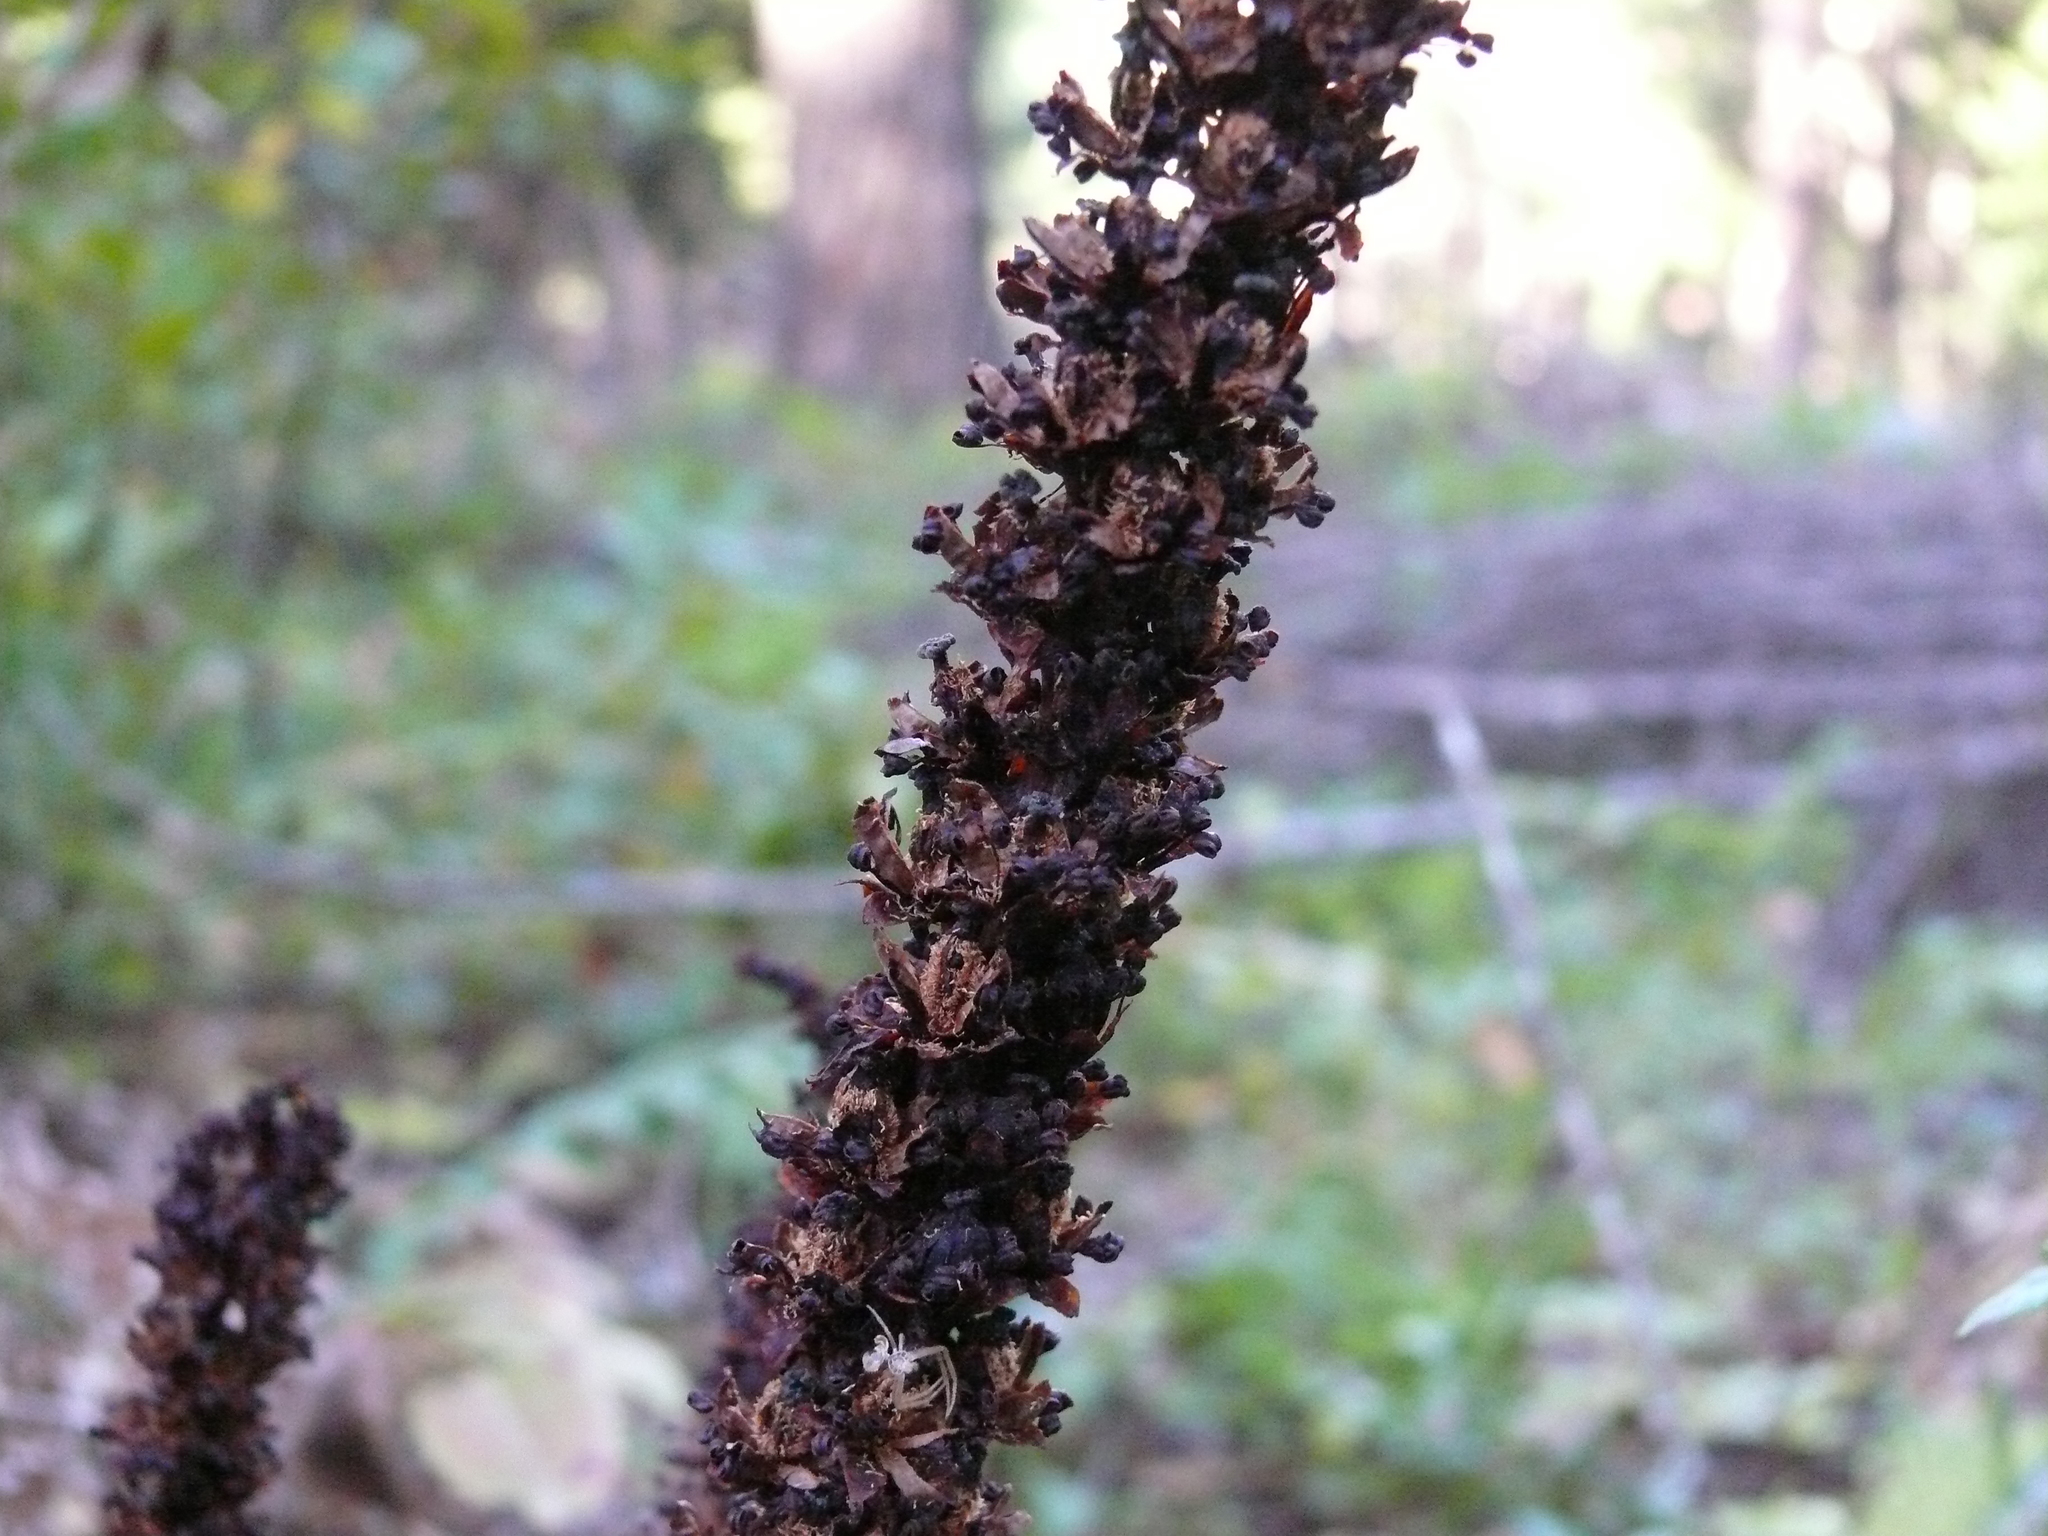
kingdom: Plantae
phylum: Tracheophyta
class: Magnoliopsida
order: Ericales
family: Ericaceae
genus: Allotropa
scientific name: Allotropa virgata
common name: Candy-striped allotropa
